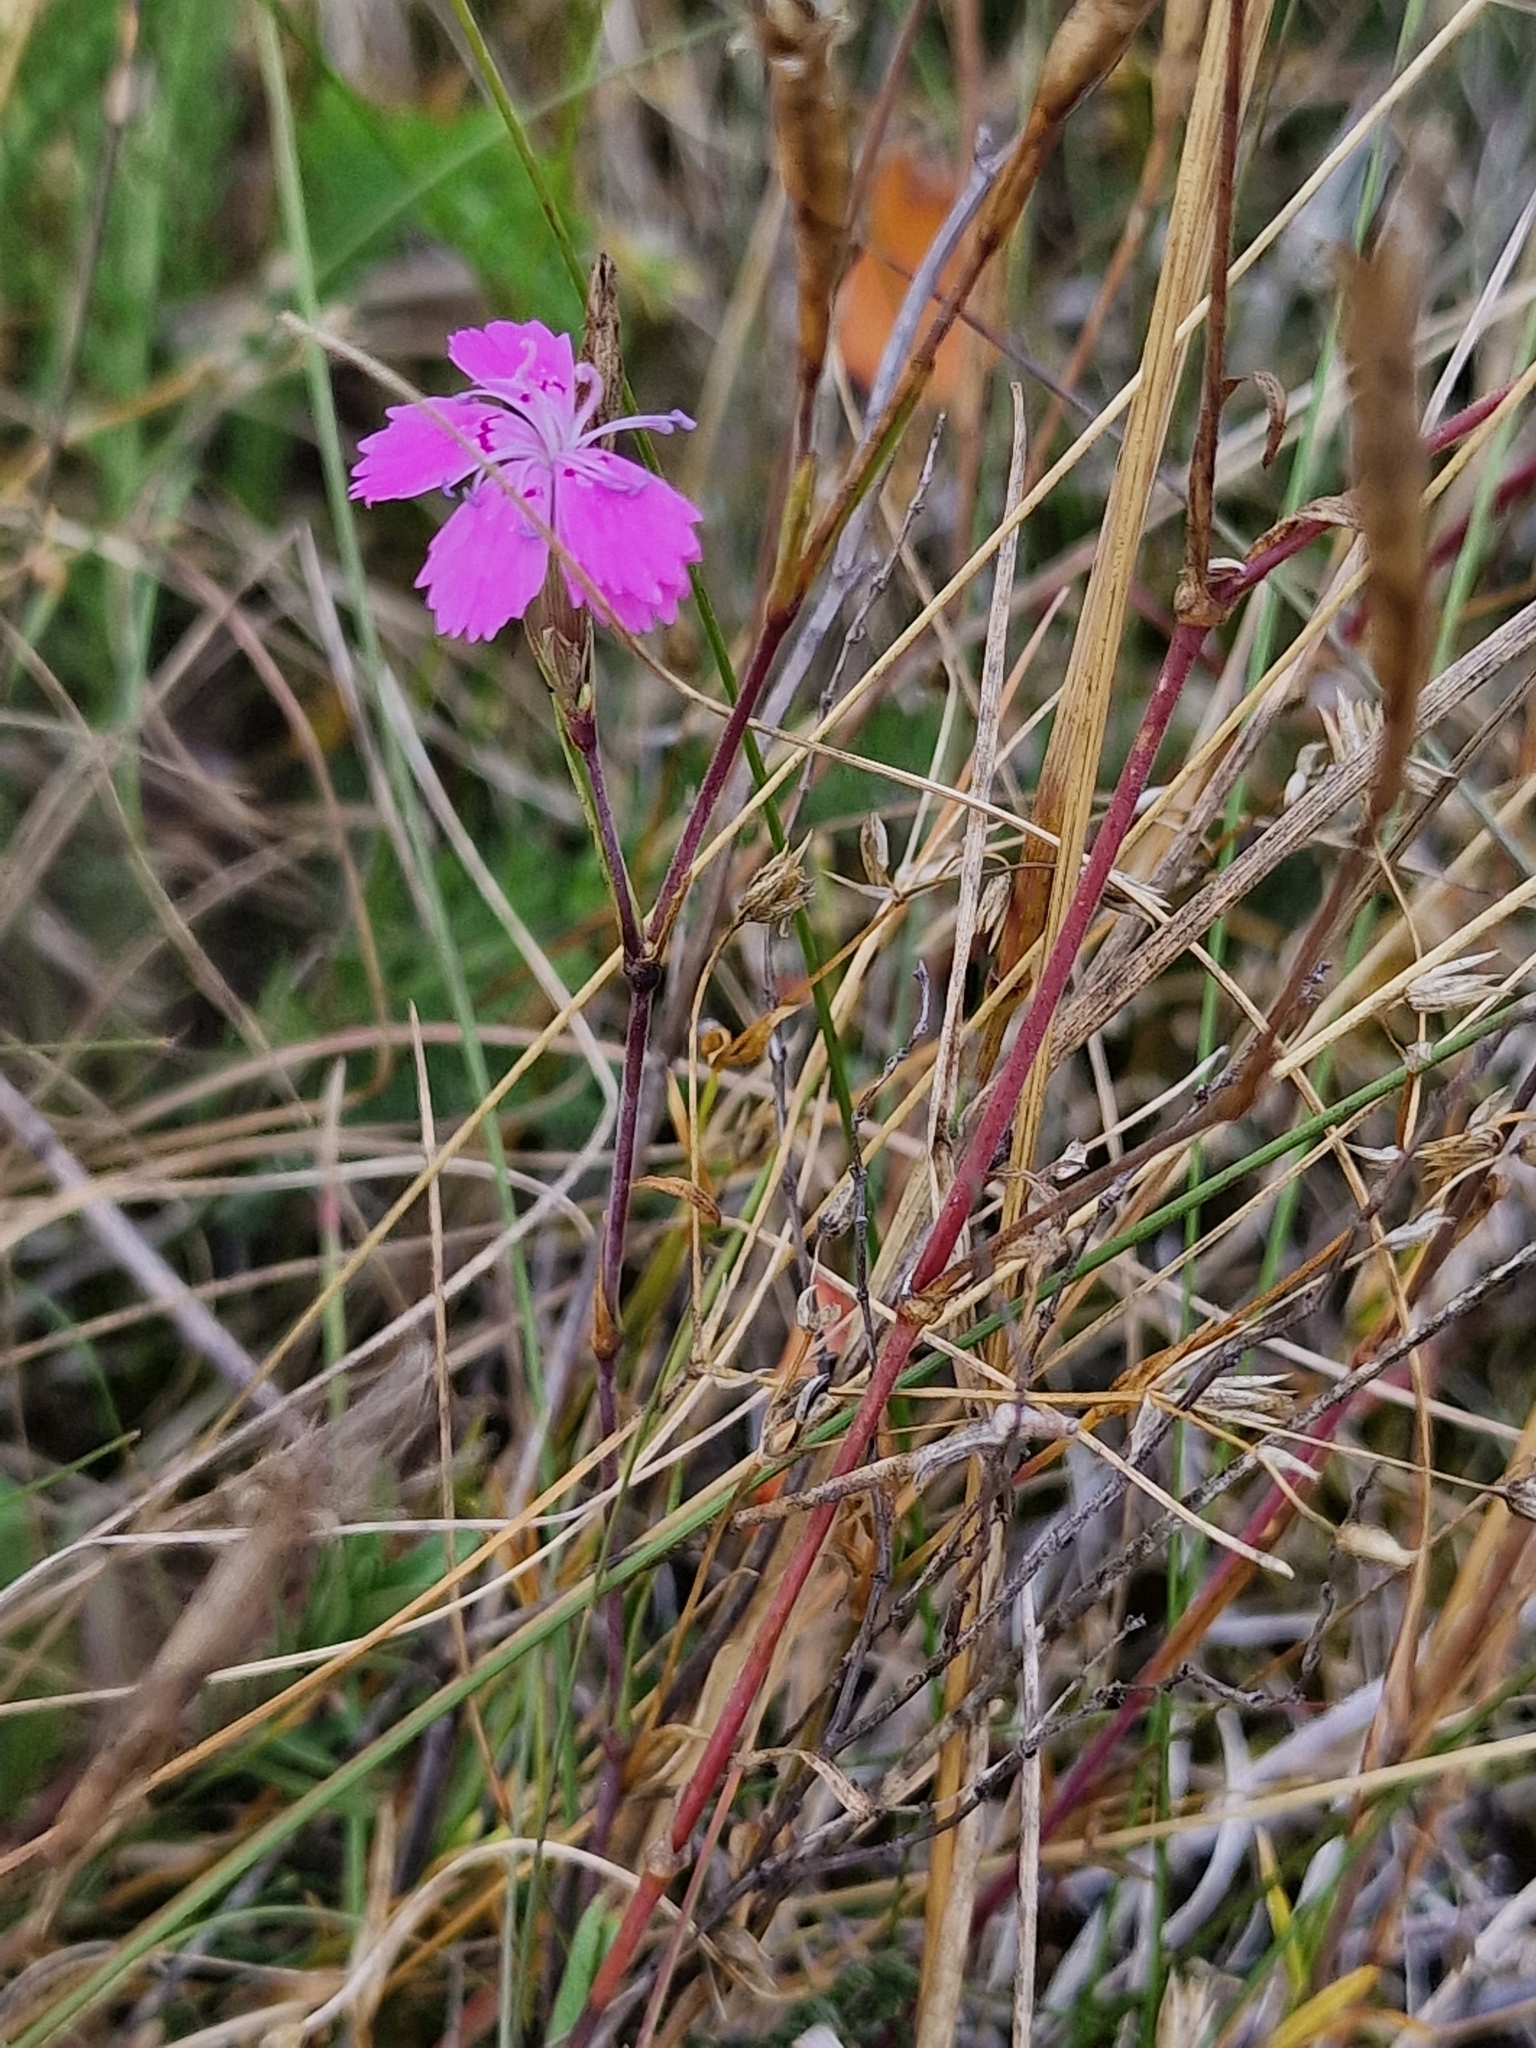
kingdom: Plantae
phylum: Tracheophyta
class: Magnoliopsida
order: Caryophyllales
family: Caryophyllaceae
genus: Dianthus
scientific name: Dianthus deltoides
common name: Maiden pink
